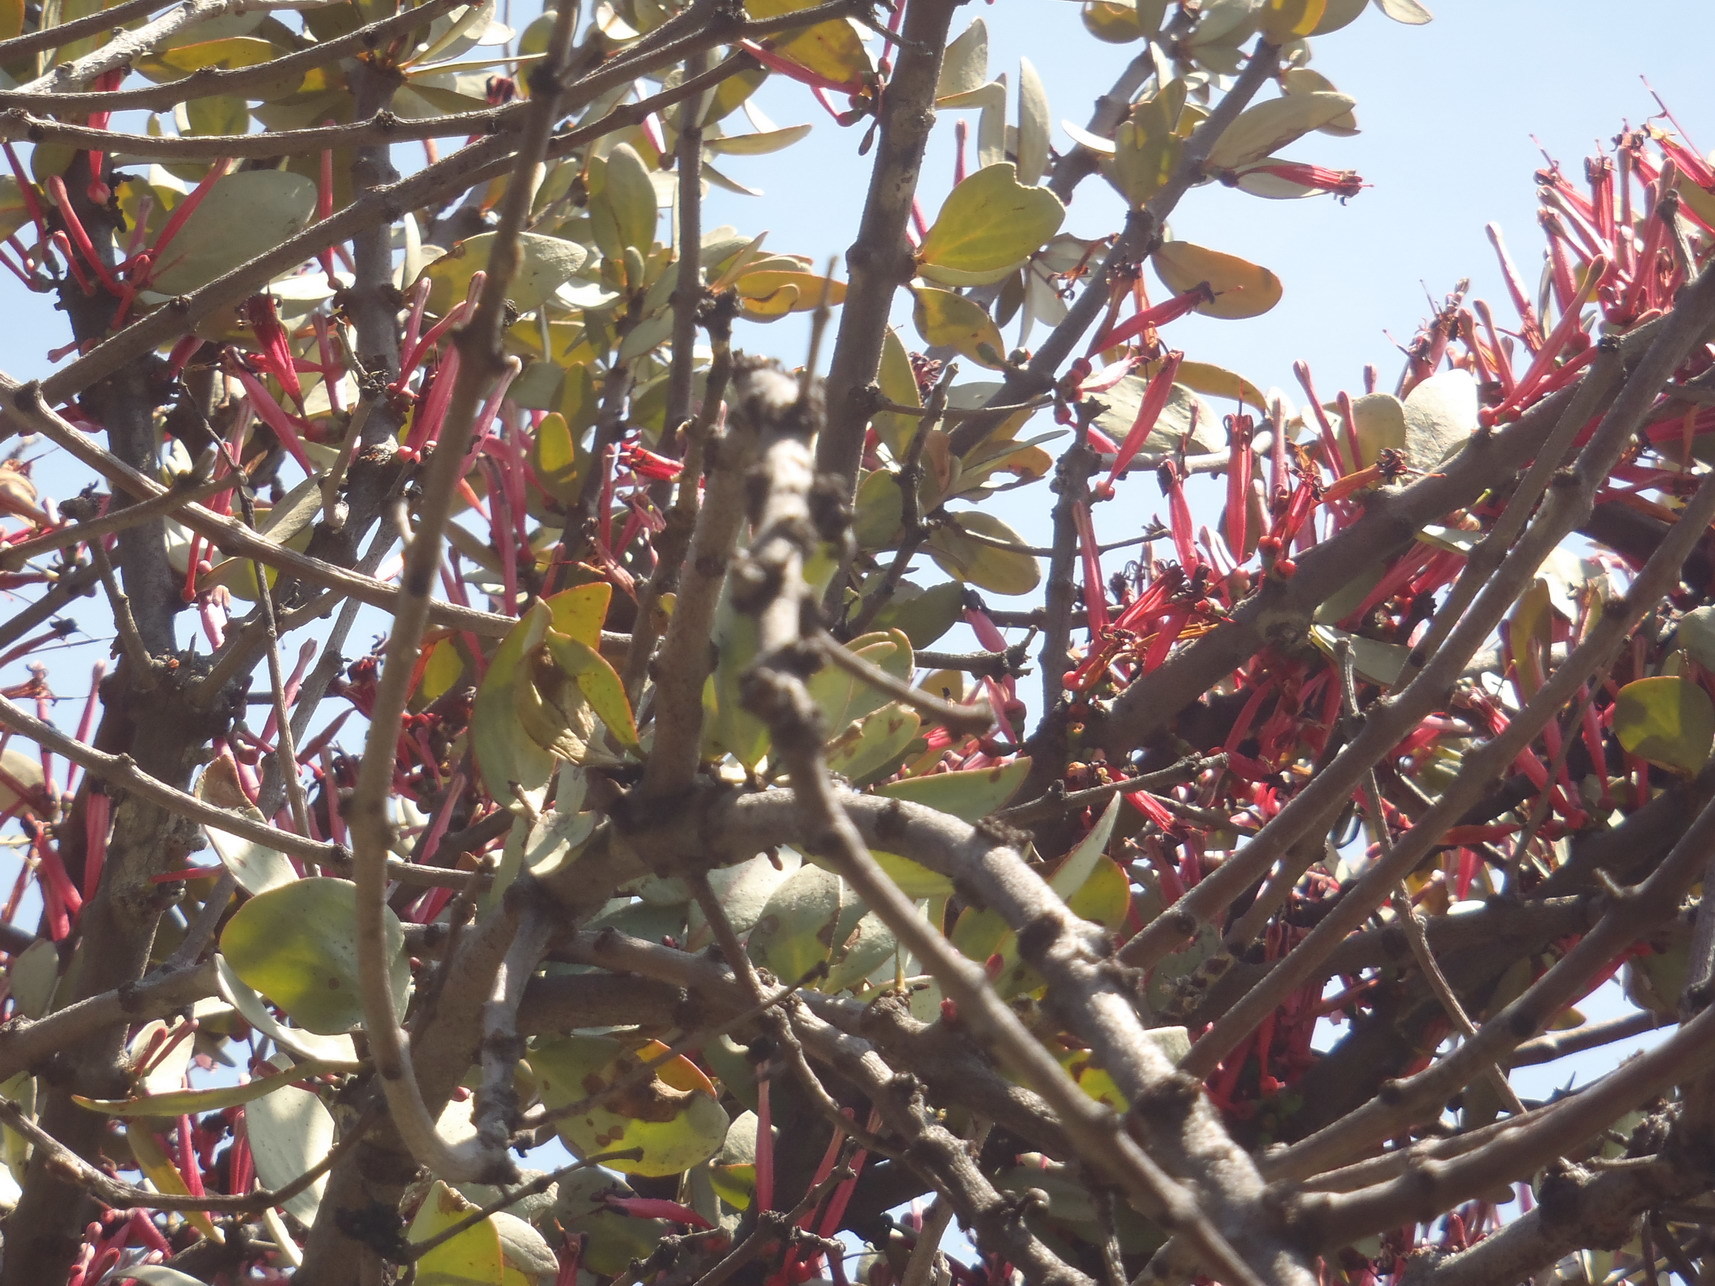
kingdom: Plantae
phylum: Tracheophyta
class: Magnoliopsida
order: Santalales
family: Loranthaceae
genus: Tapinanthus
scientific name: Tapinanthus rubromarginatus
